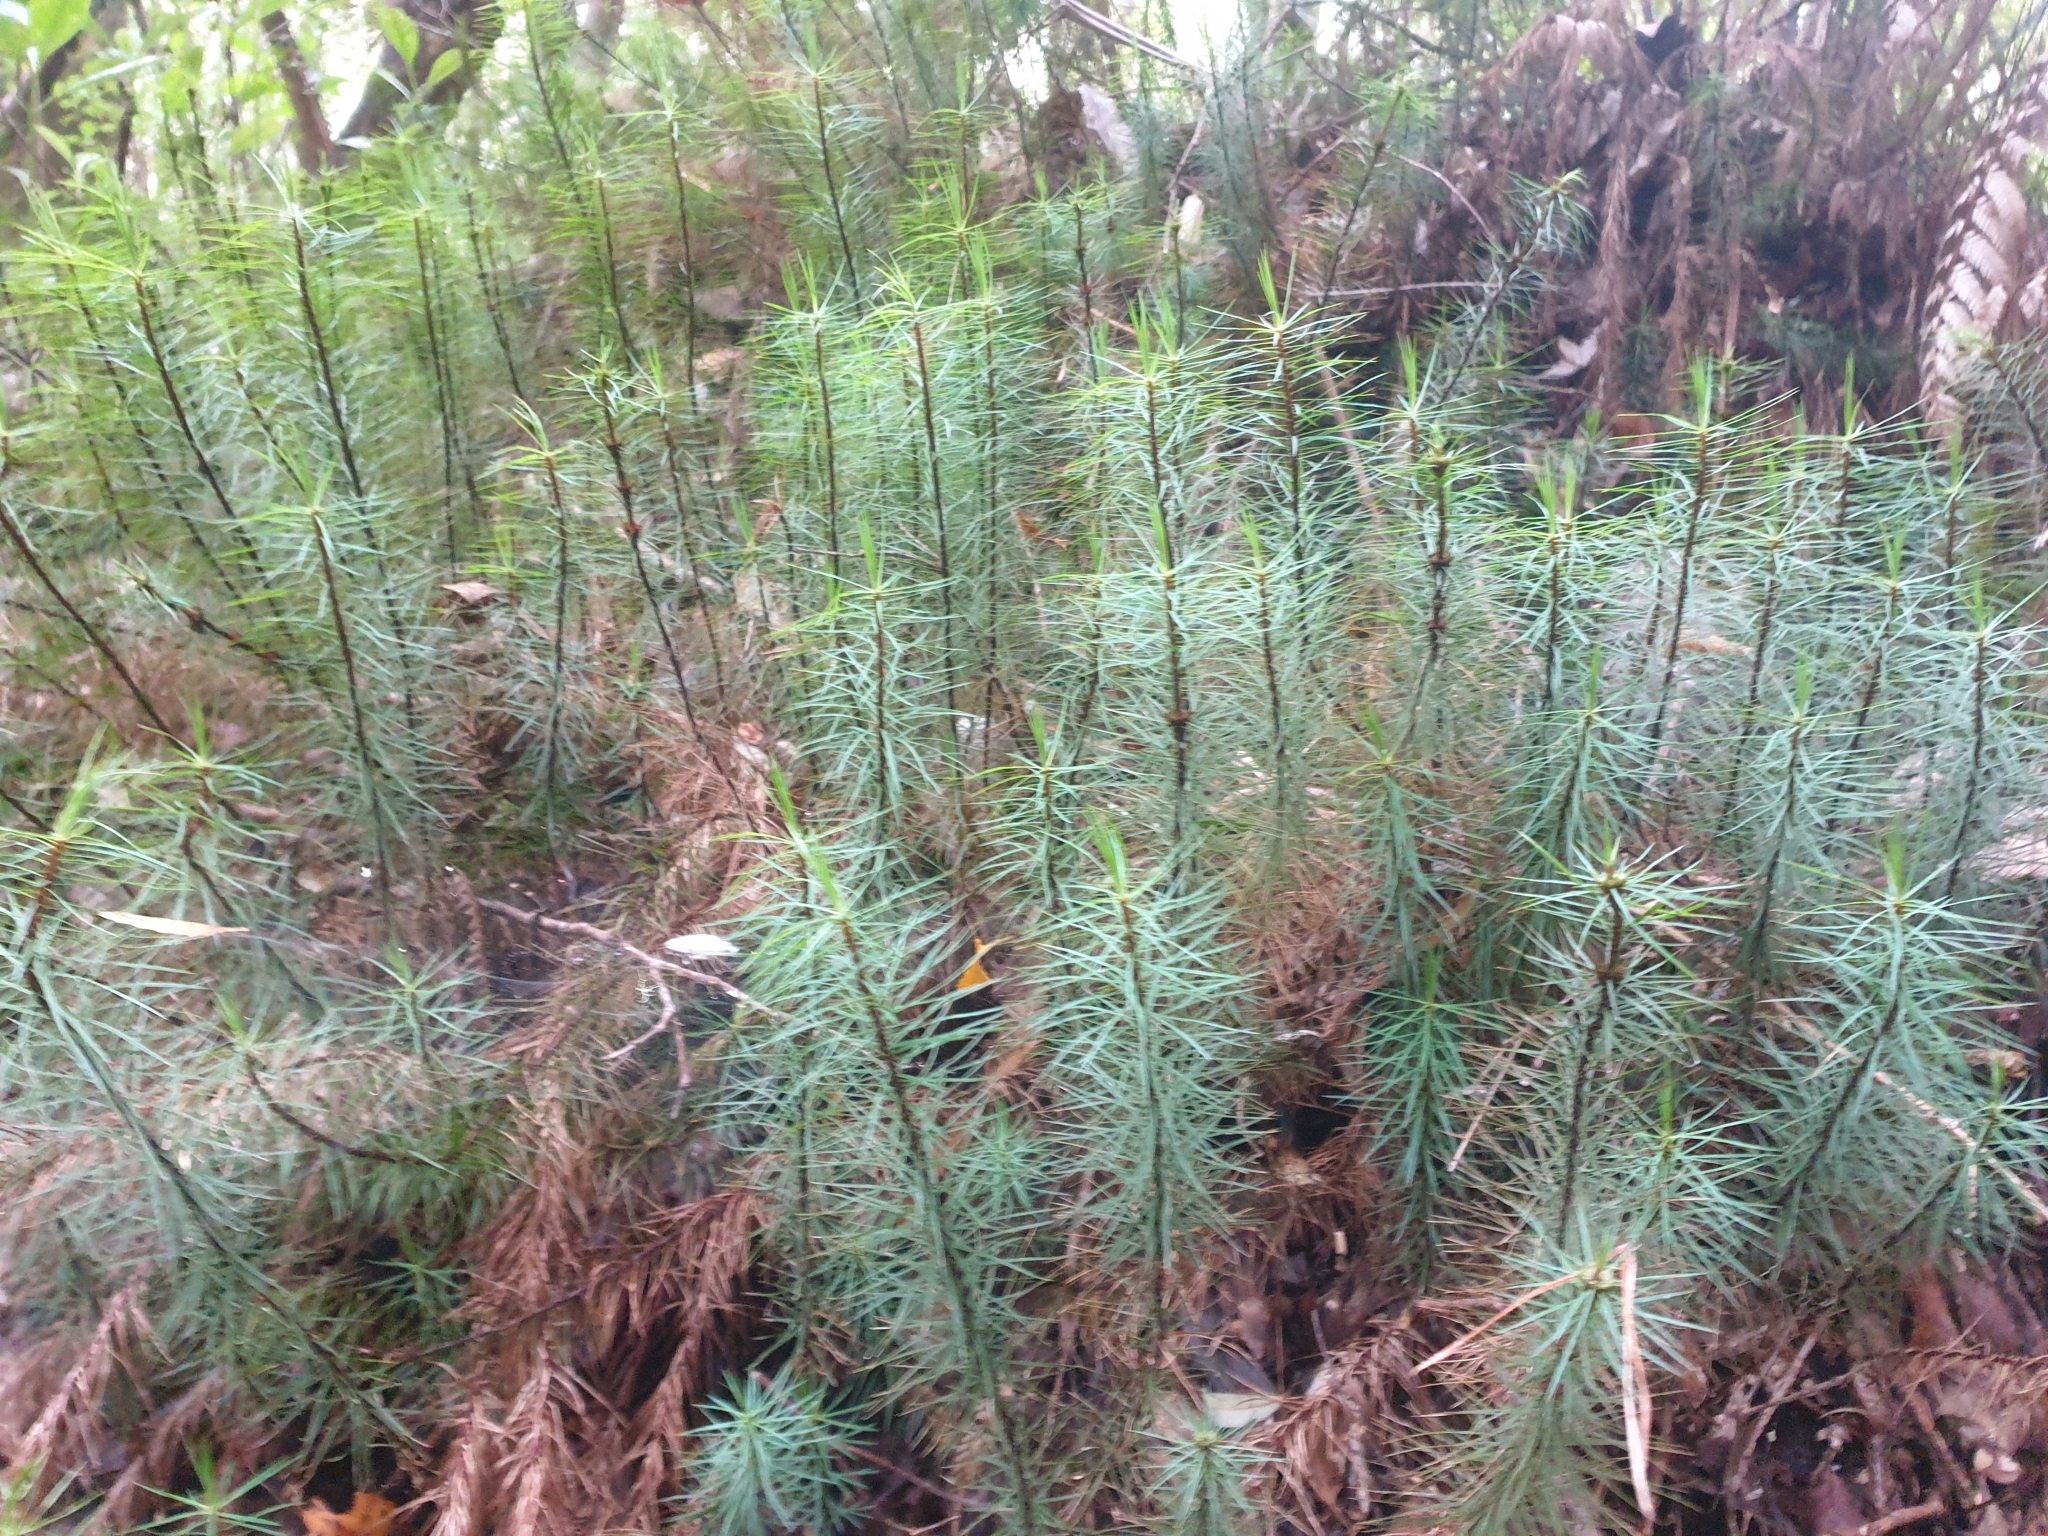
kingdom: Plantae
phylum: Bryophyta
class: Polytrichopsida
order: Polytrichales
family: Polytrichaceae
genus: Dawsonia
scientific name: Dawsonia superba
